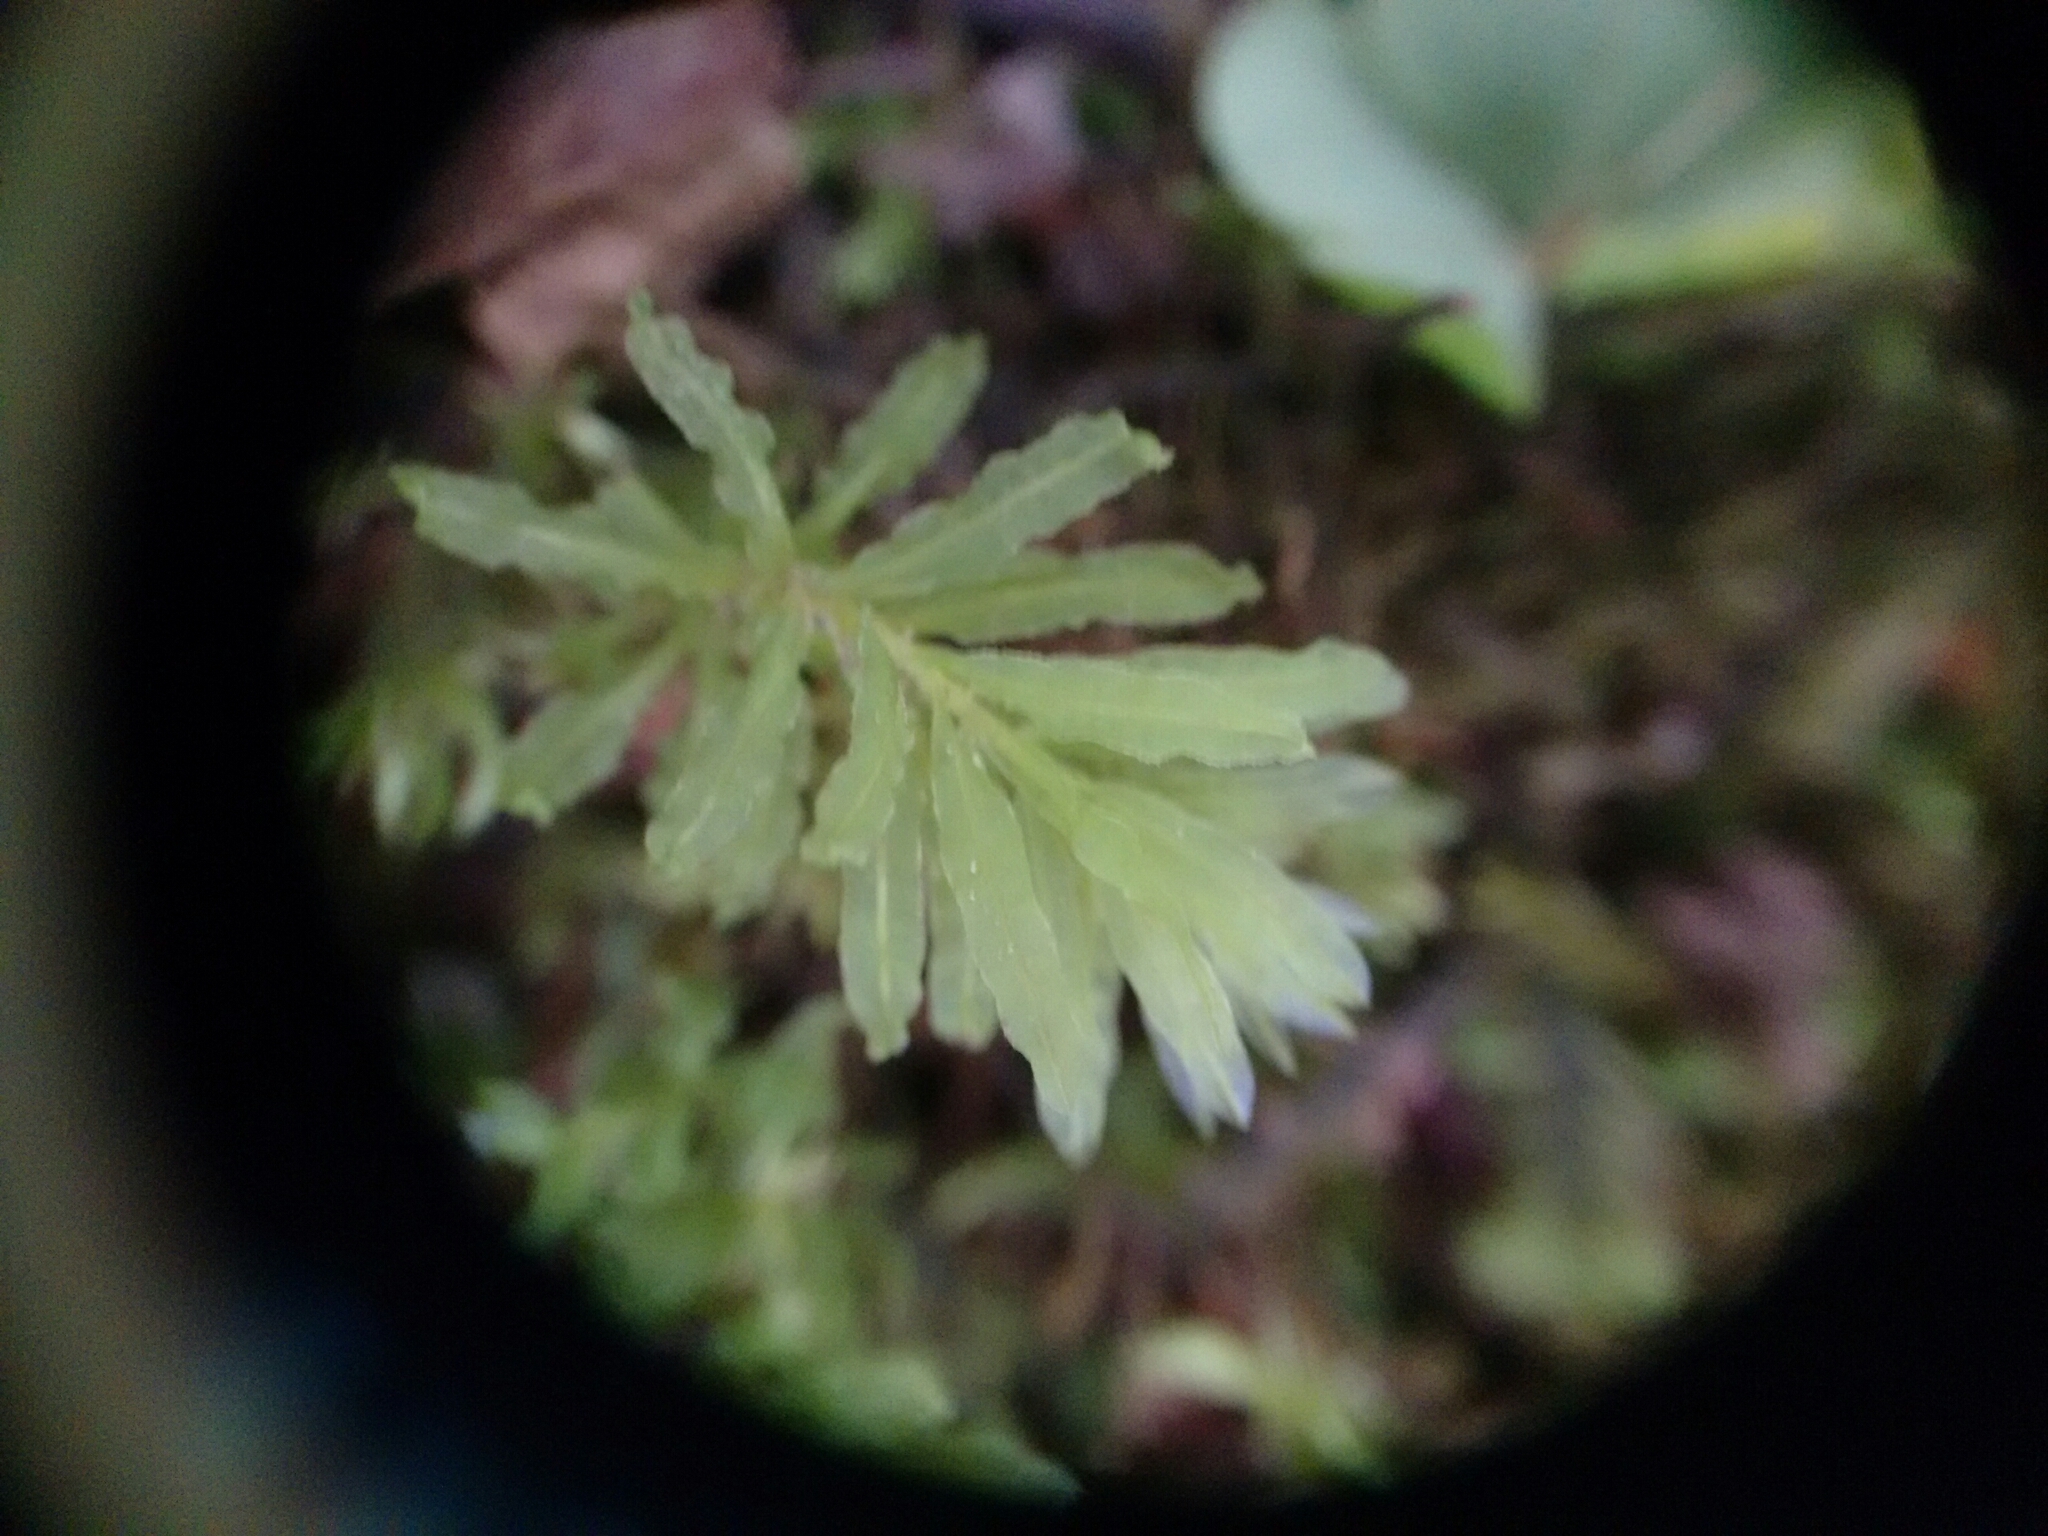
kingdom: Plantae
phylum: Bryophyta
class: Bryopsida
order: Bryales
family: Mniaceae
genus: Plagiomnium
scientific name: Plagiomnium undulatum
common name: Hart's-tongue thyme-moss
